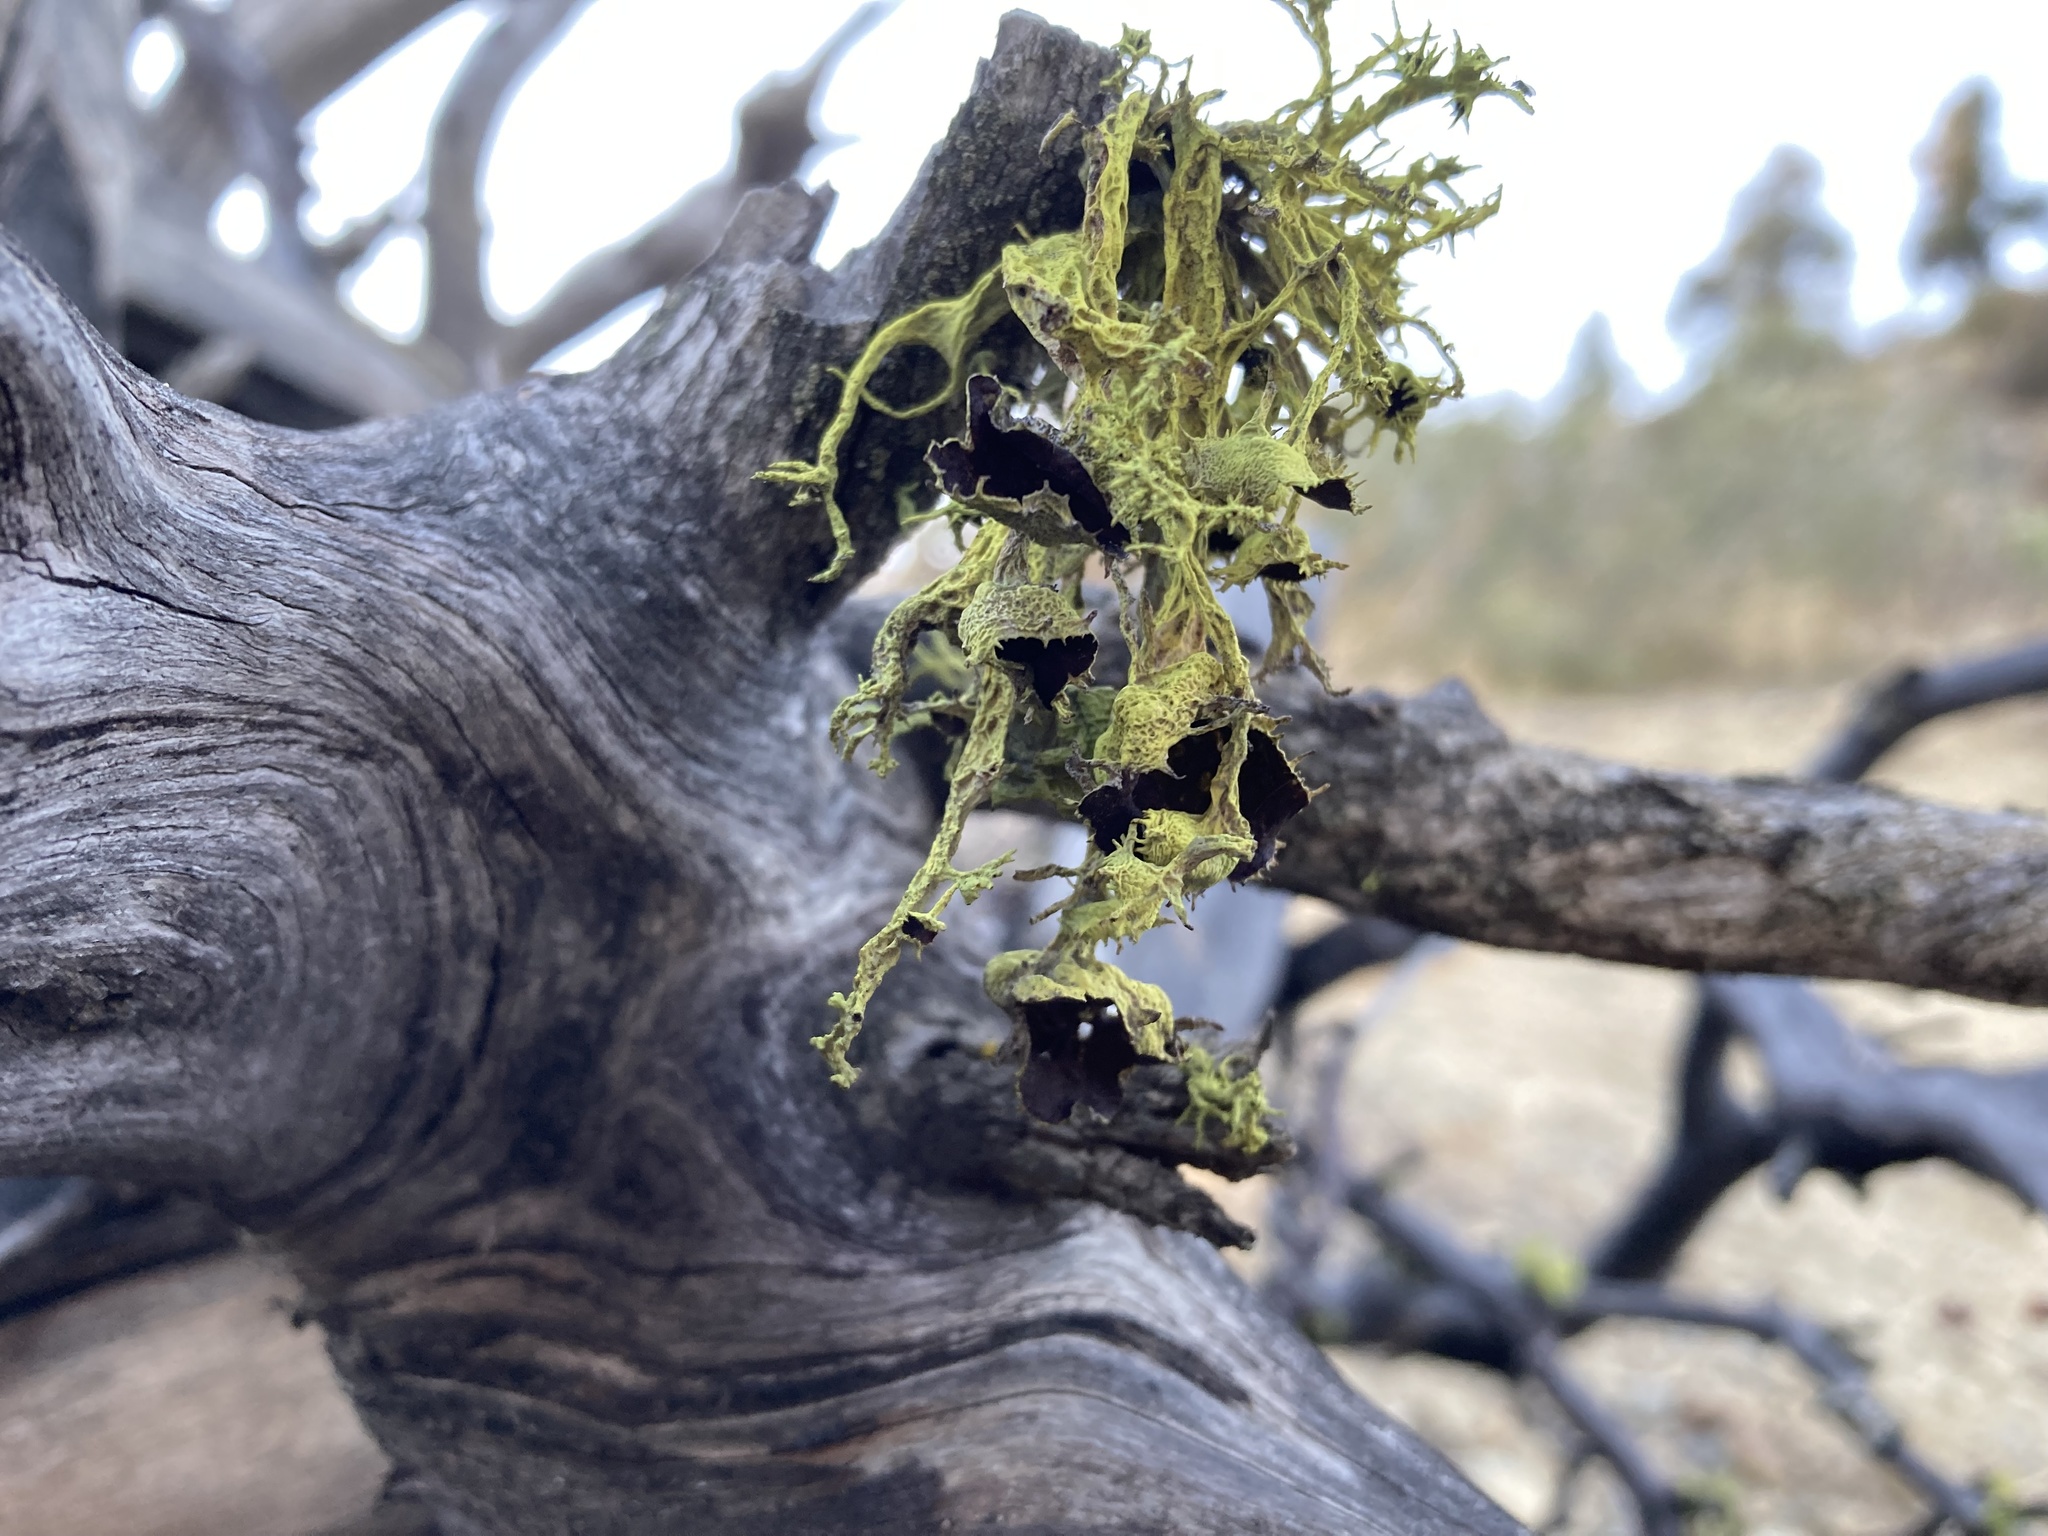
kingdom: Fungi
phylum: Ascomycota
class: Lecanoromycetes
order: Lecanorales
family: Parmeliaceae
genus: Letharia
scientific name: Letharia columbiana
